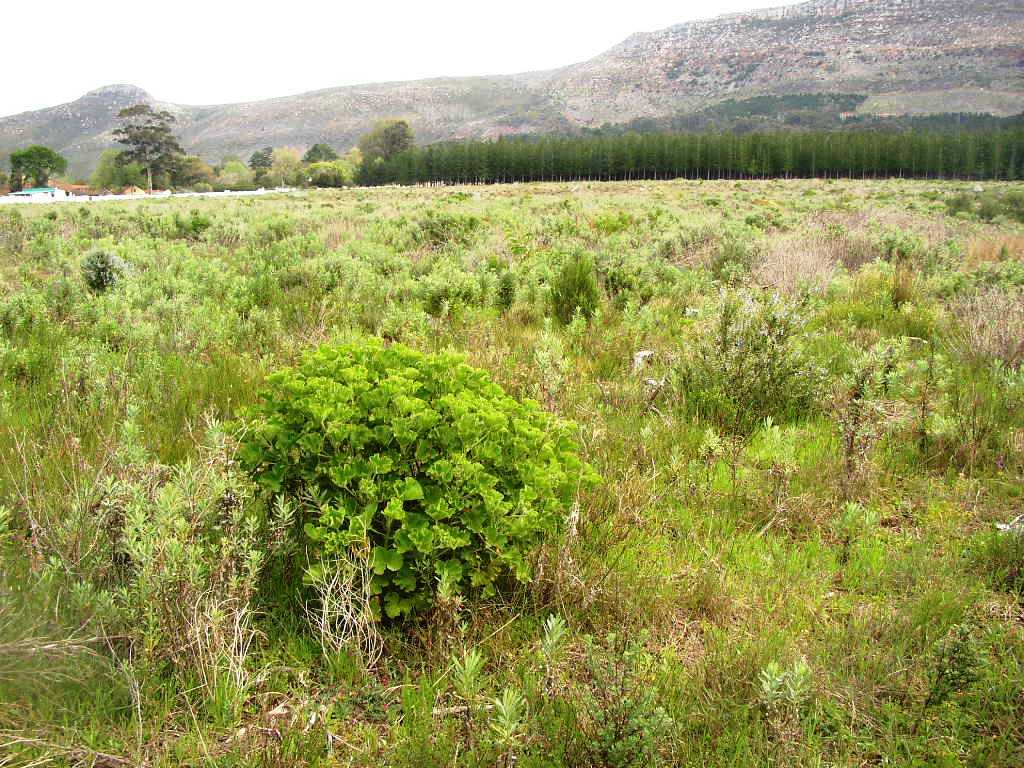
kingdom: Plantae
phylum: Tracheophyta
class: Magnoliopsida
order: Geraniales
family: Geraniaceae
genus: Pelargonium
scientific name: Pelargonium cucullatum
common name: Tree pelargonium
